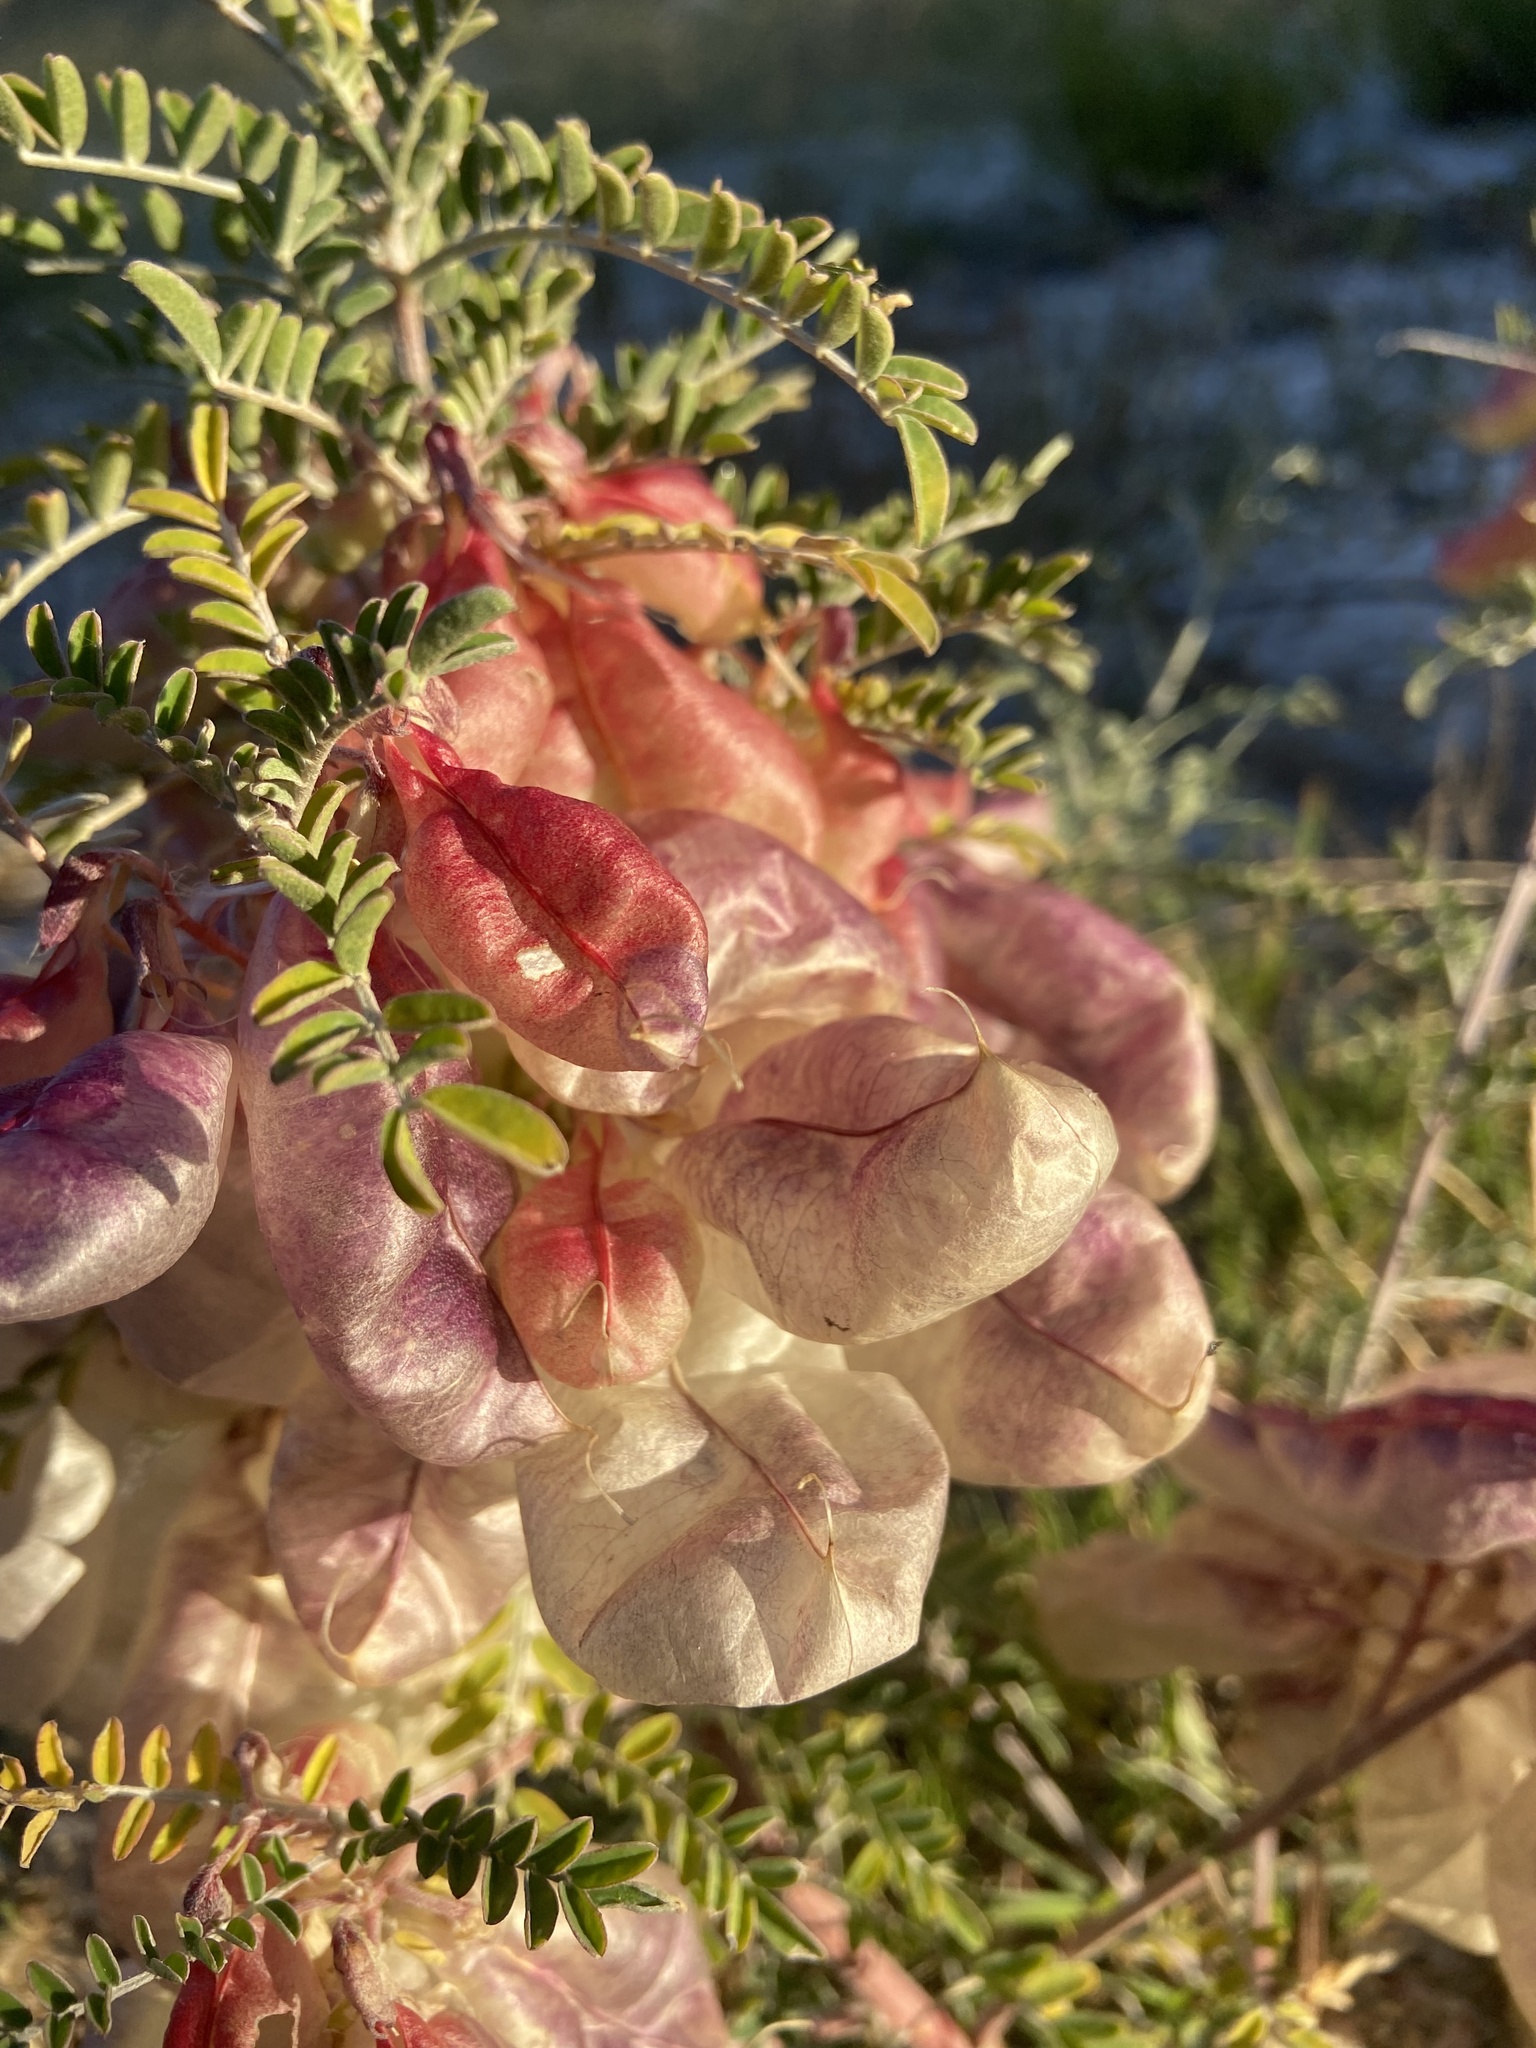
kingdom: Plantae
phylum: Tracheophyta
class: Magnoliopsida
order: Fabales
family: Fabaceae
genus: Lessertia
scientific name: Lessertia frutescens
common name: Balloon-pea
